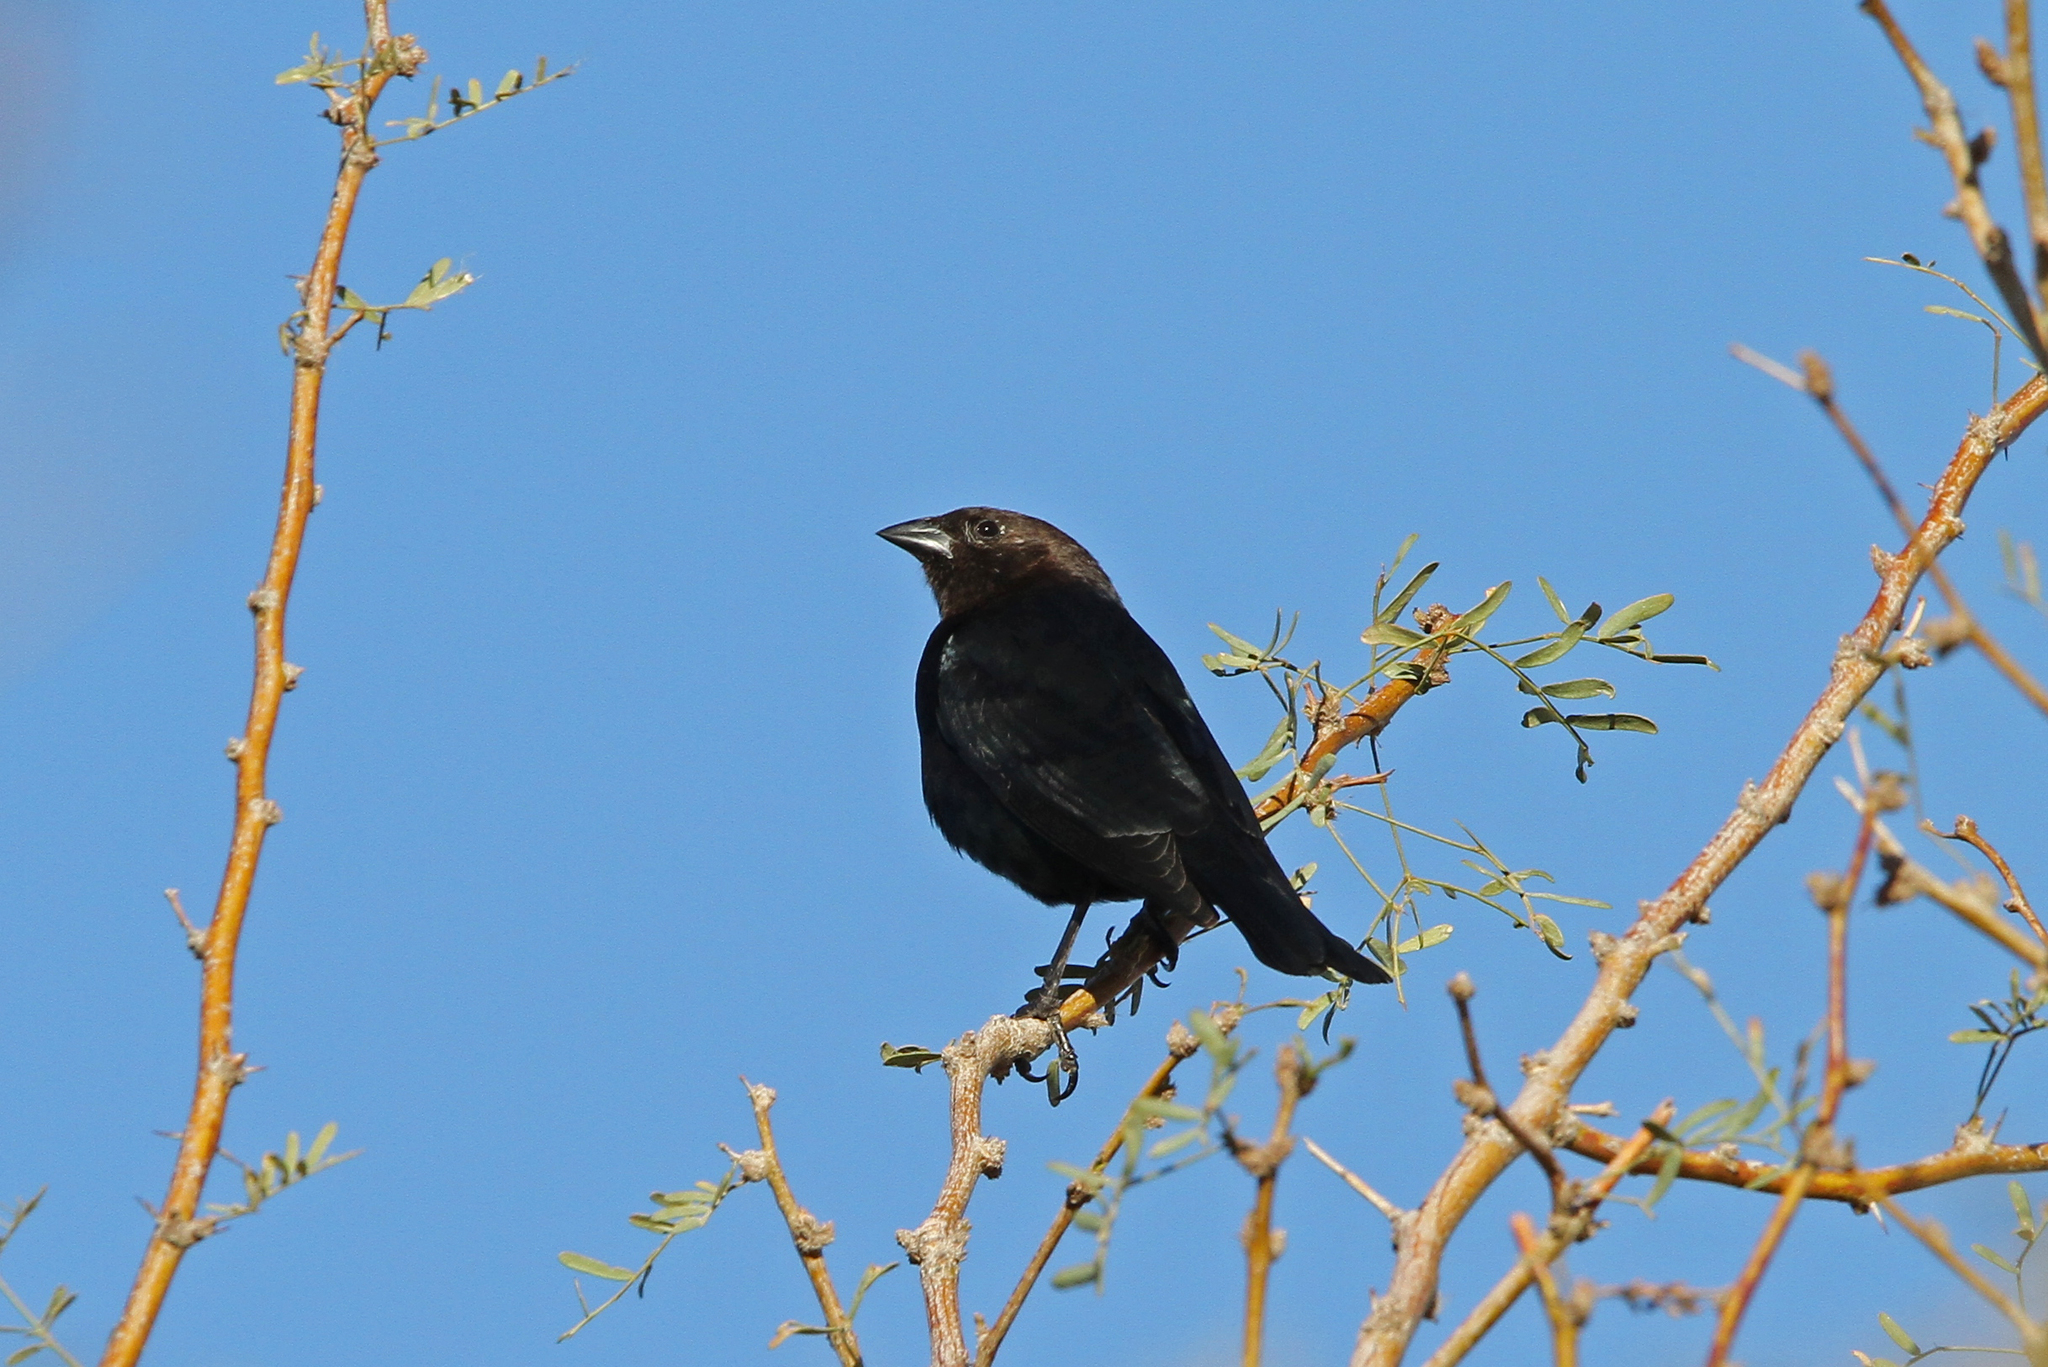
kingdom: Animalia
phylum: Chordata
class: Aves
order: Passeriformes
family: Icteridae
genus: Molothrus
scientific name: Molothrus ater
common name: Brown-headed cowbird
